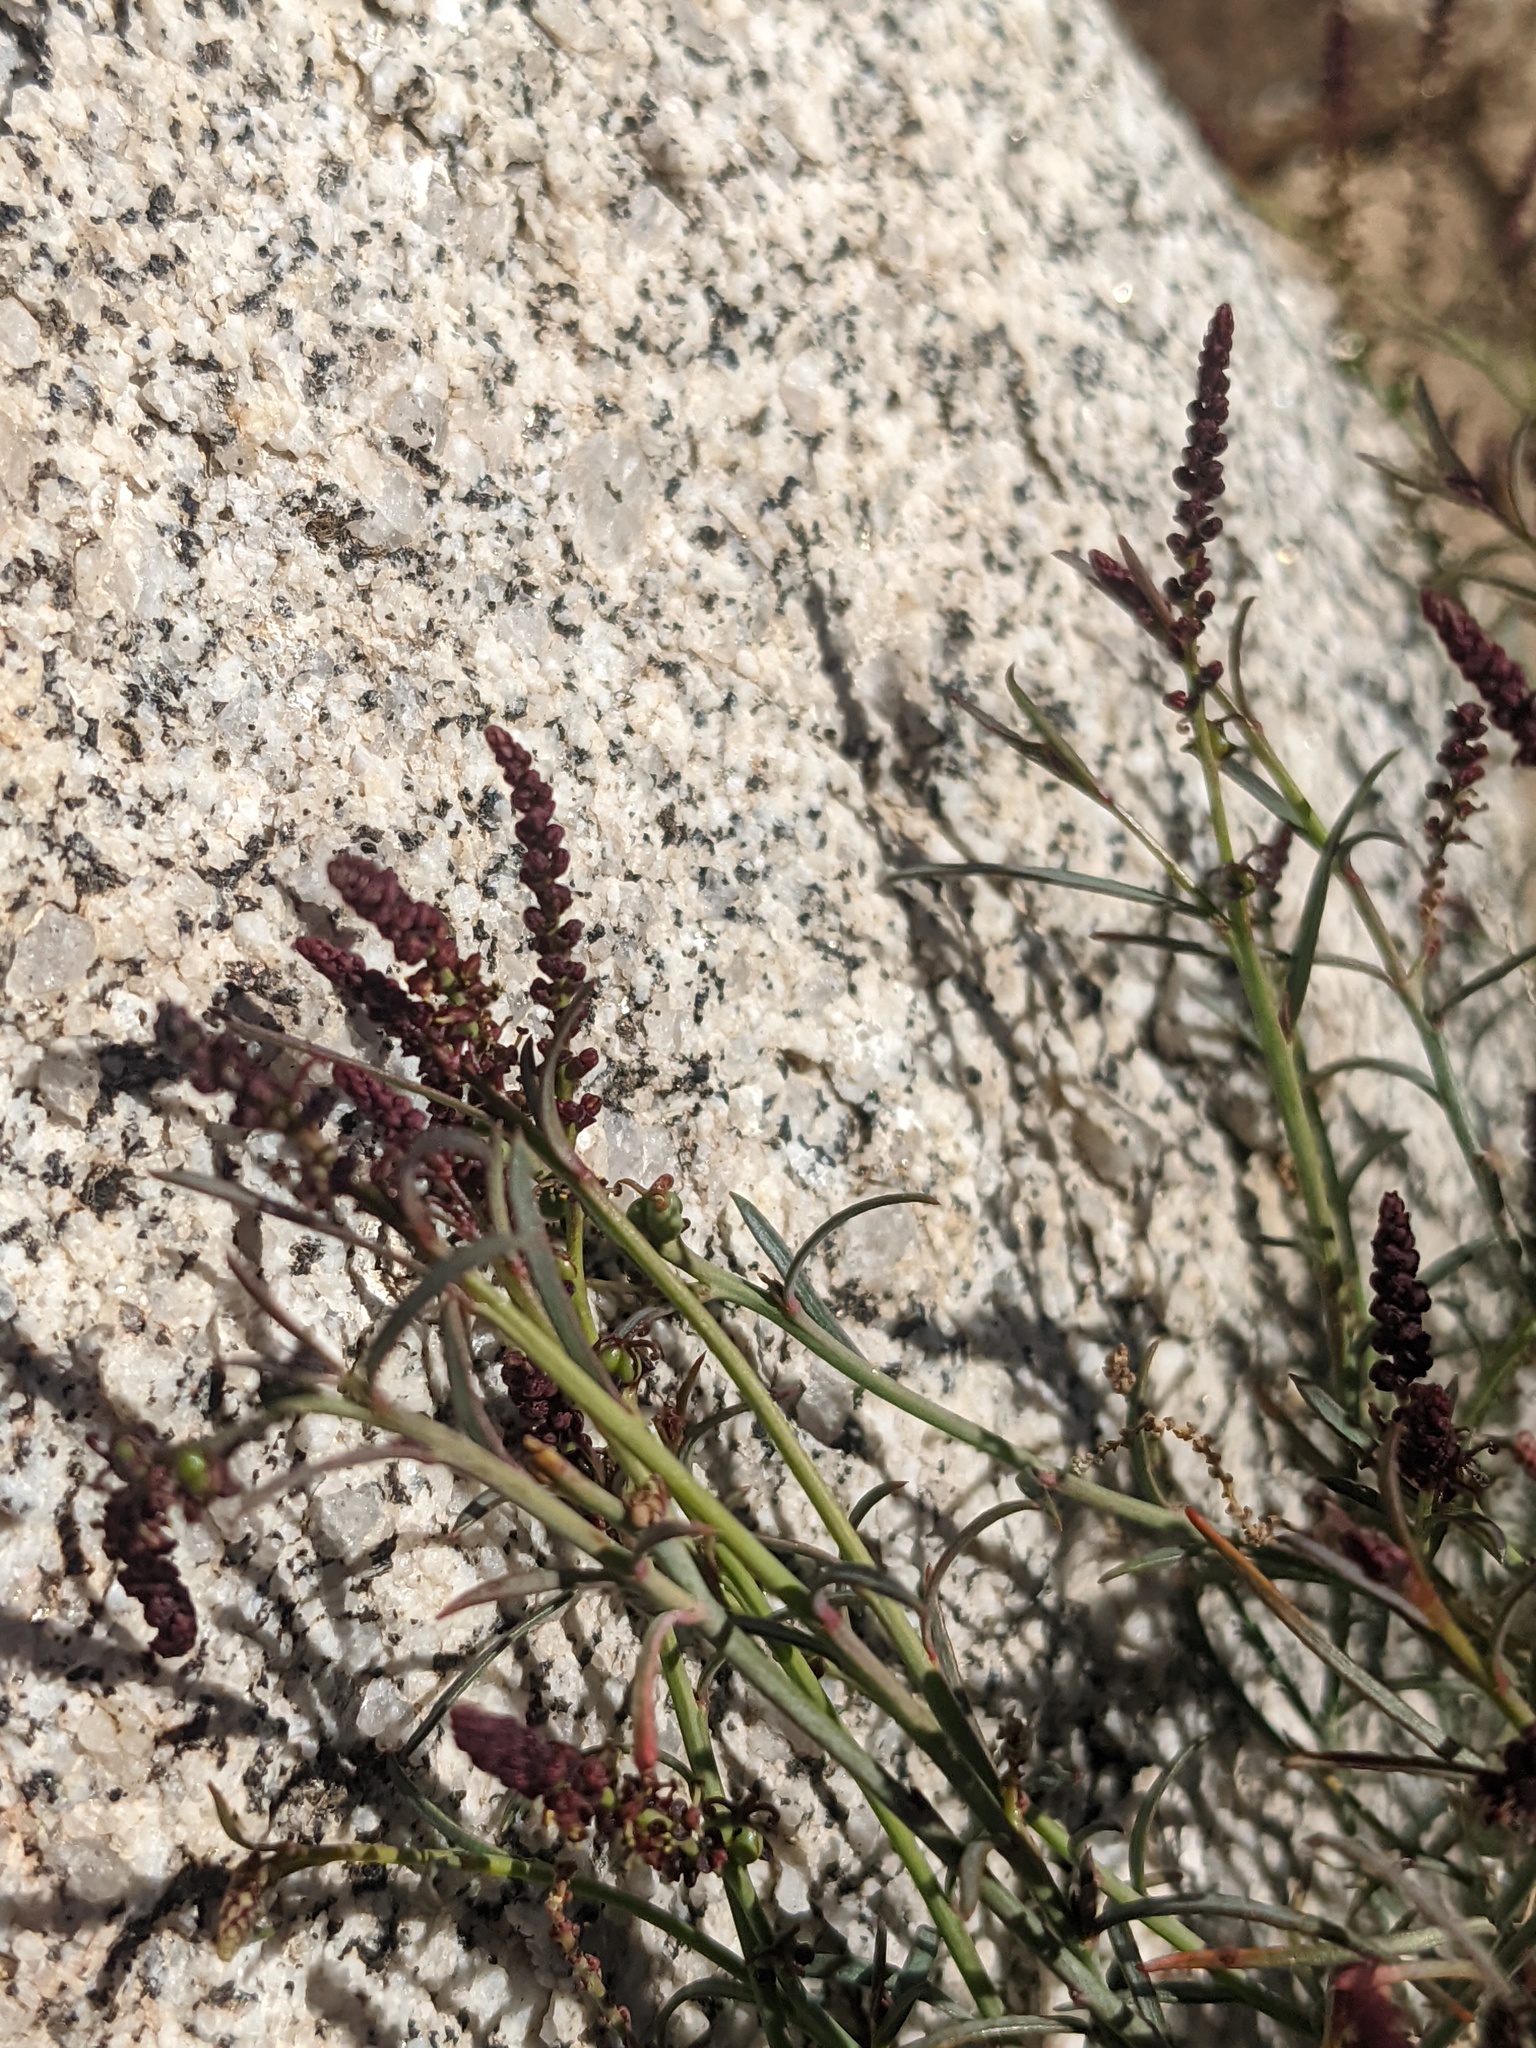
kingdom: Plantae
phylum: Tracheophyta
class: Magnoliopsida
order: Malpighiales
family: Euphorbiaceae
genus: Stillingia
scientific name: Stillingia linearifolia
